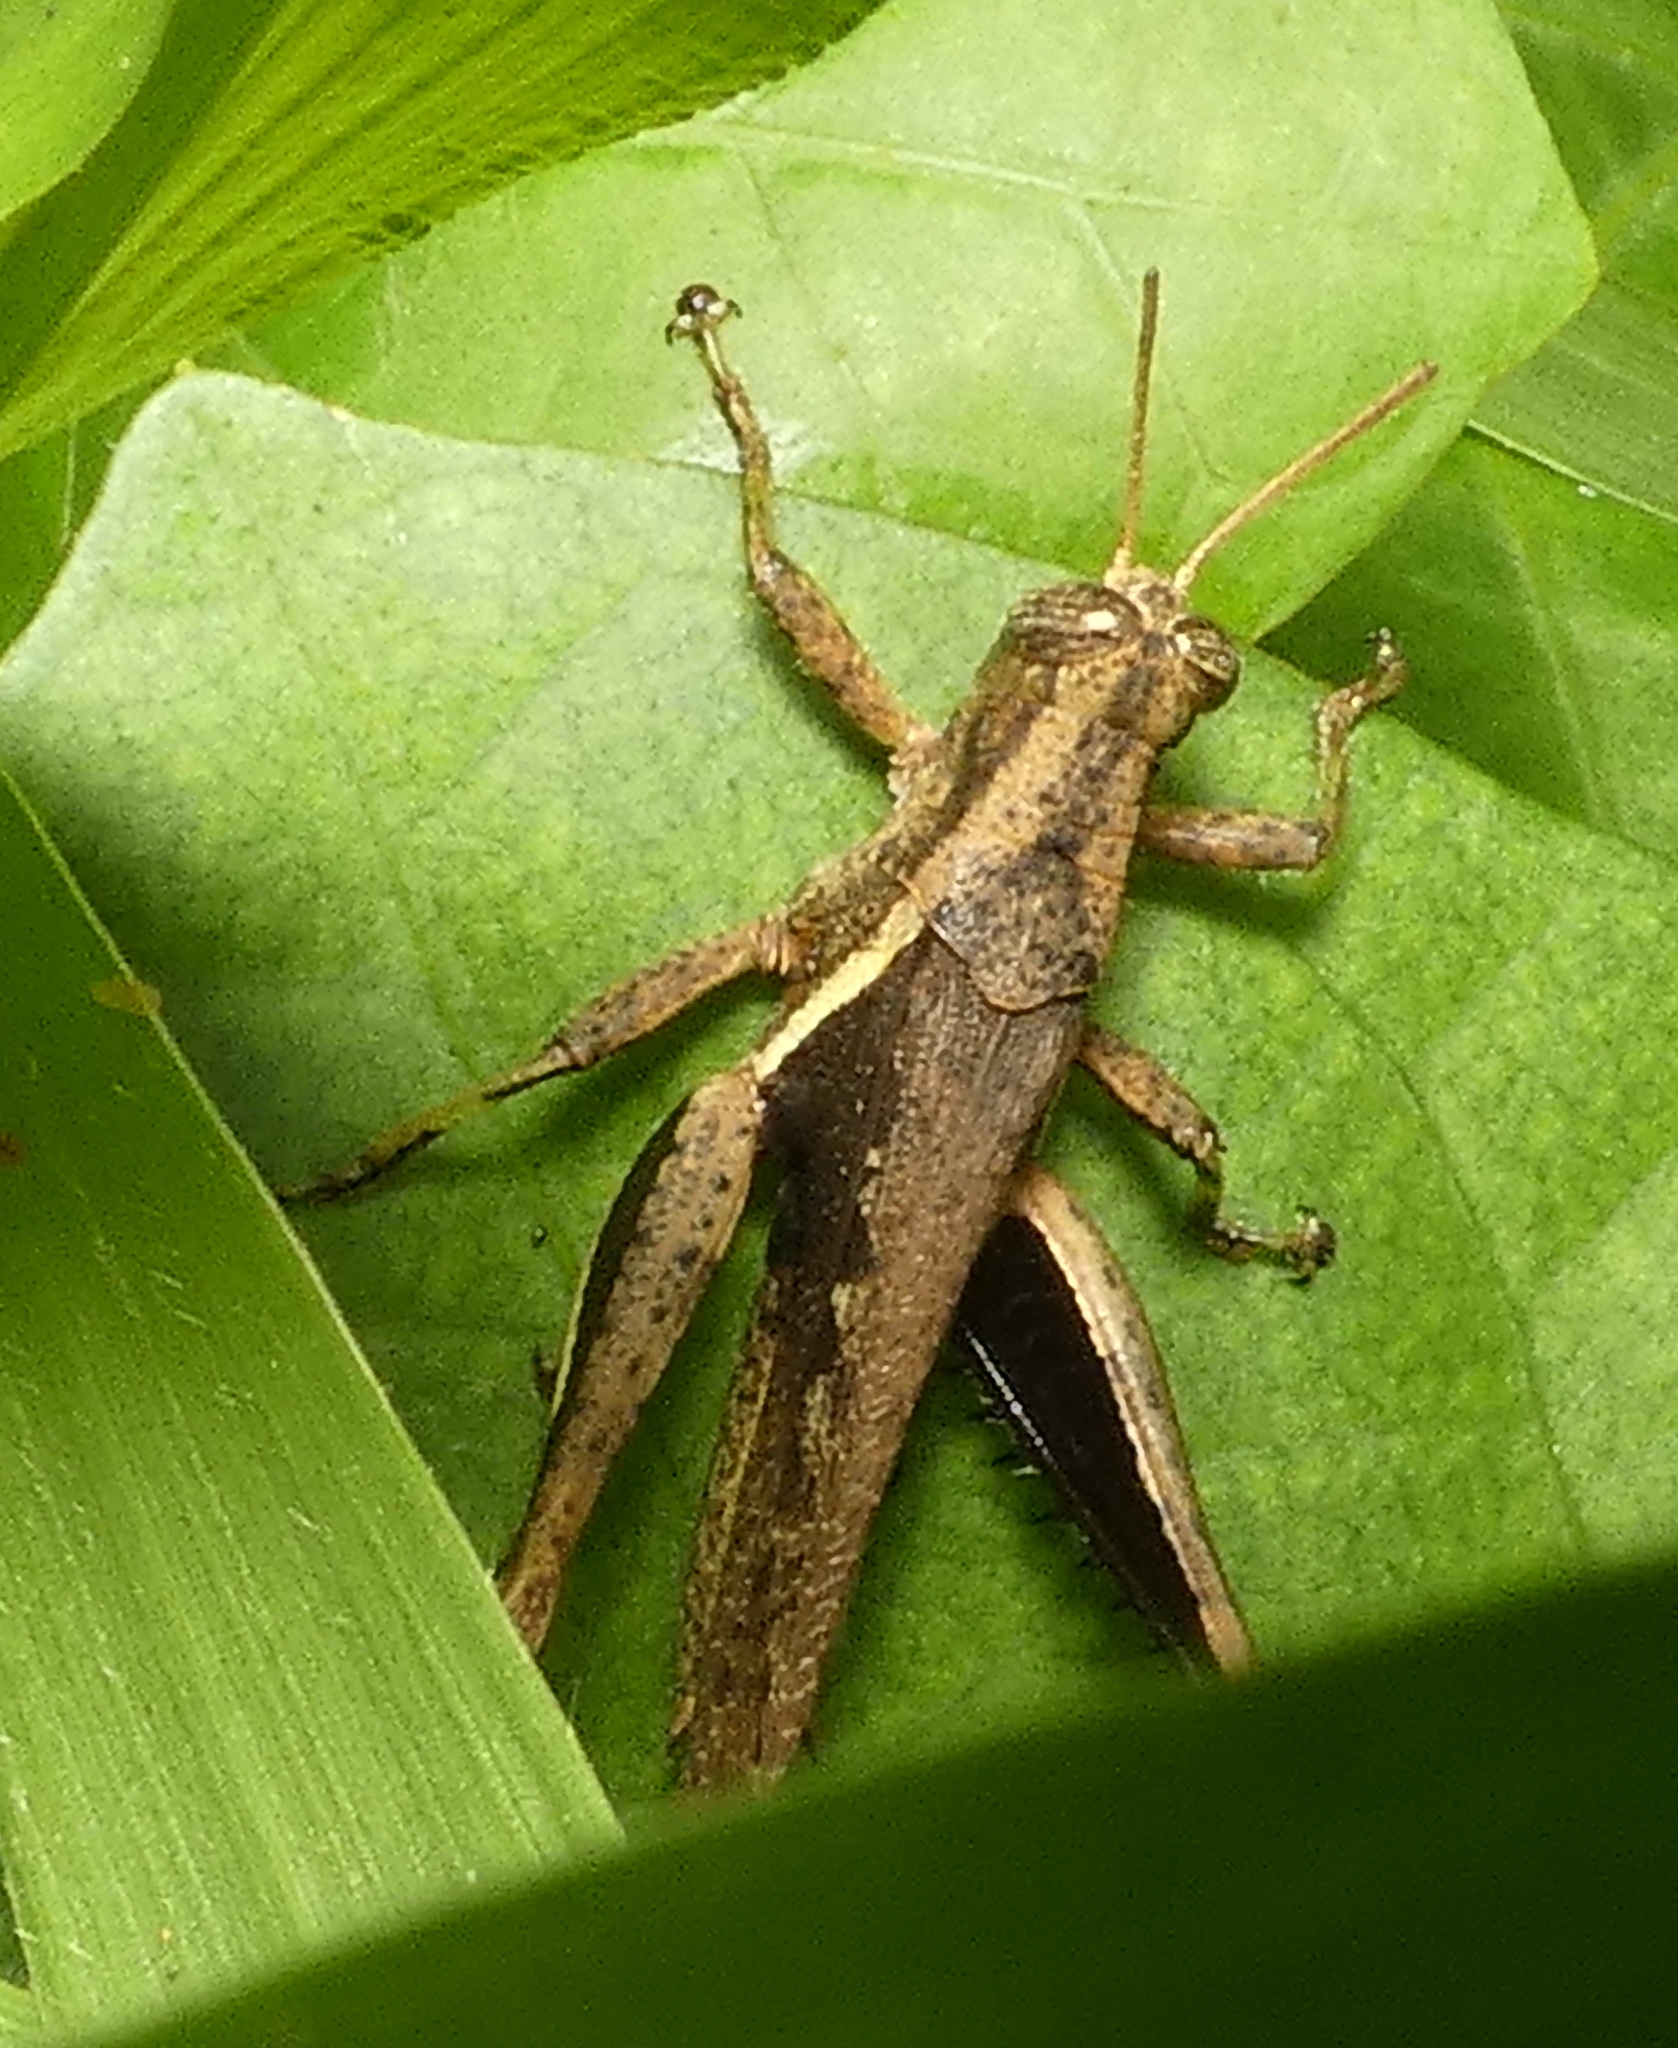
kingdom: Animalia
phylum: Arthropoda
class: Insecta
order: Orthoptera
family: Acrididae
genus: Abracris
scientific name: Abracris flavolineata
